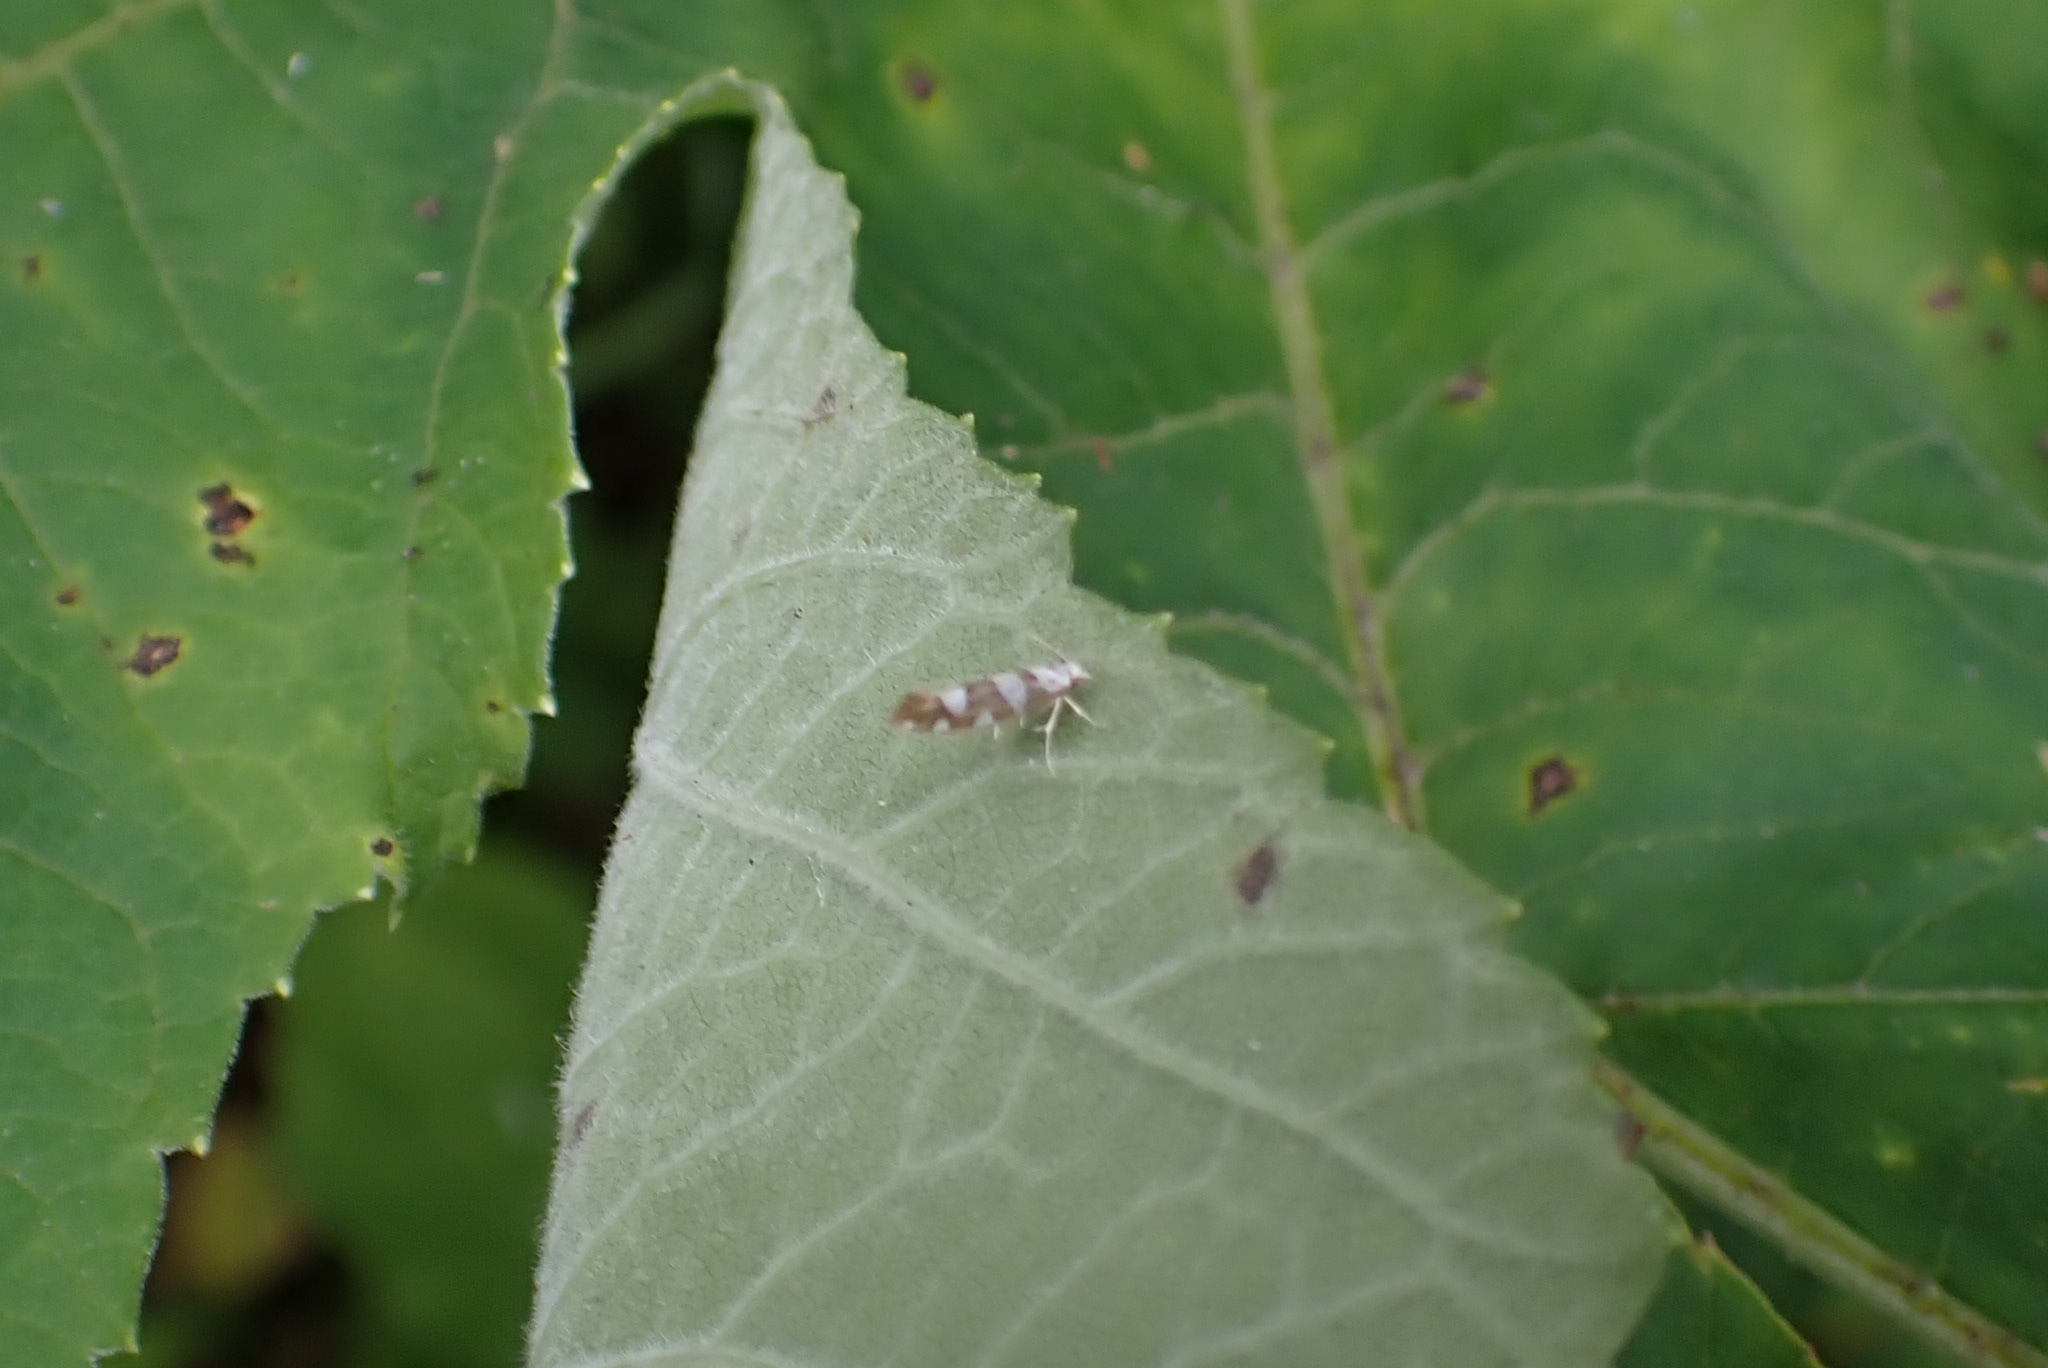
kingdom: Animalia
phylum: Arthropoda
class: Insecta
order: Lepidoptera
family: Argyresthiidae
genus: Argyresthia
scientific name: Argyresthia brockeella
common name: Gold-ribbon argent
